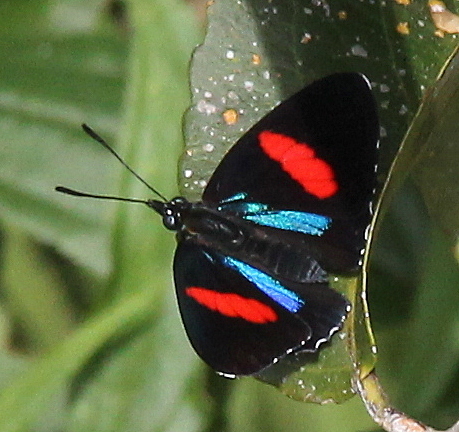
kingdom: Animalia
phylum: Arthropoda
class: Insecta
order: Lepidoptera
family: Nymphalidae
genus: Catagramma
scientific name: Catagramma Callicore hydaspes
